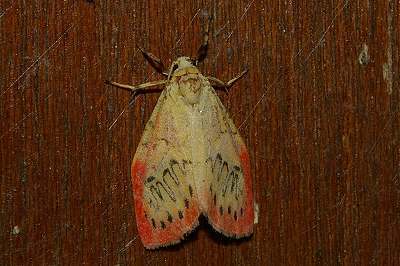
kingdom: Animalia
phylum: Arthropoda
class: Insecta
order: Lepidoptera
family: Erebidae
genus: Miltochrista
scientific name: Miltochrista miniata
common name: Rosy footman
